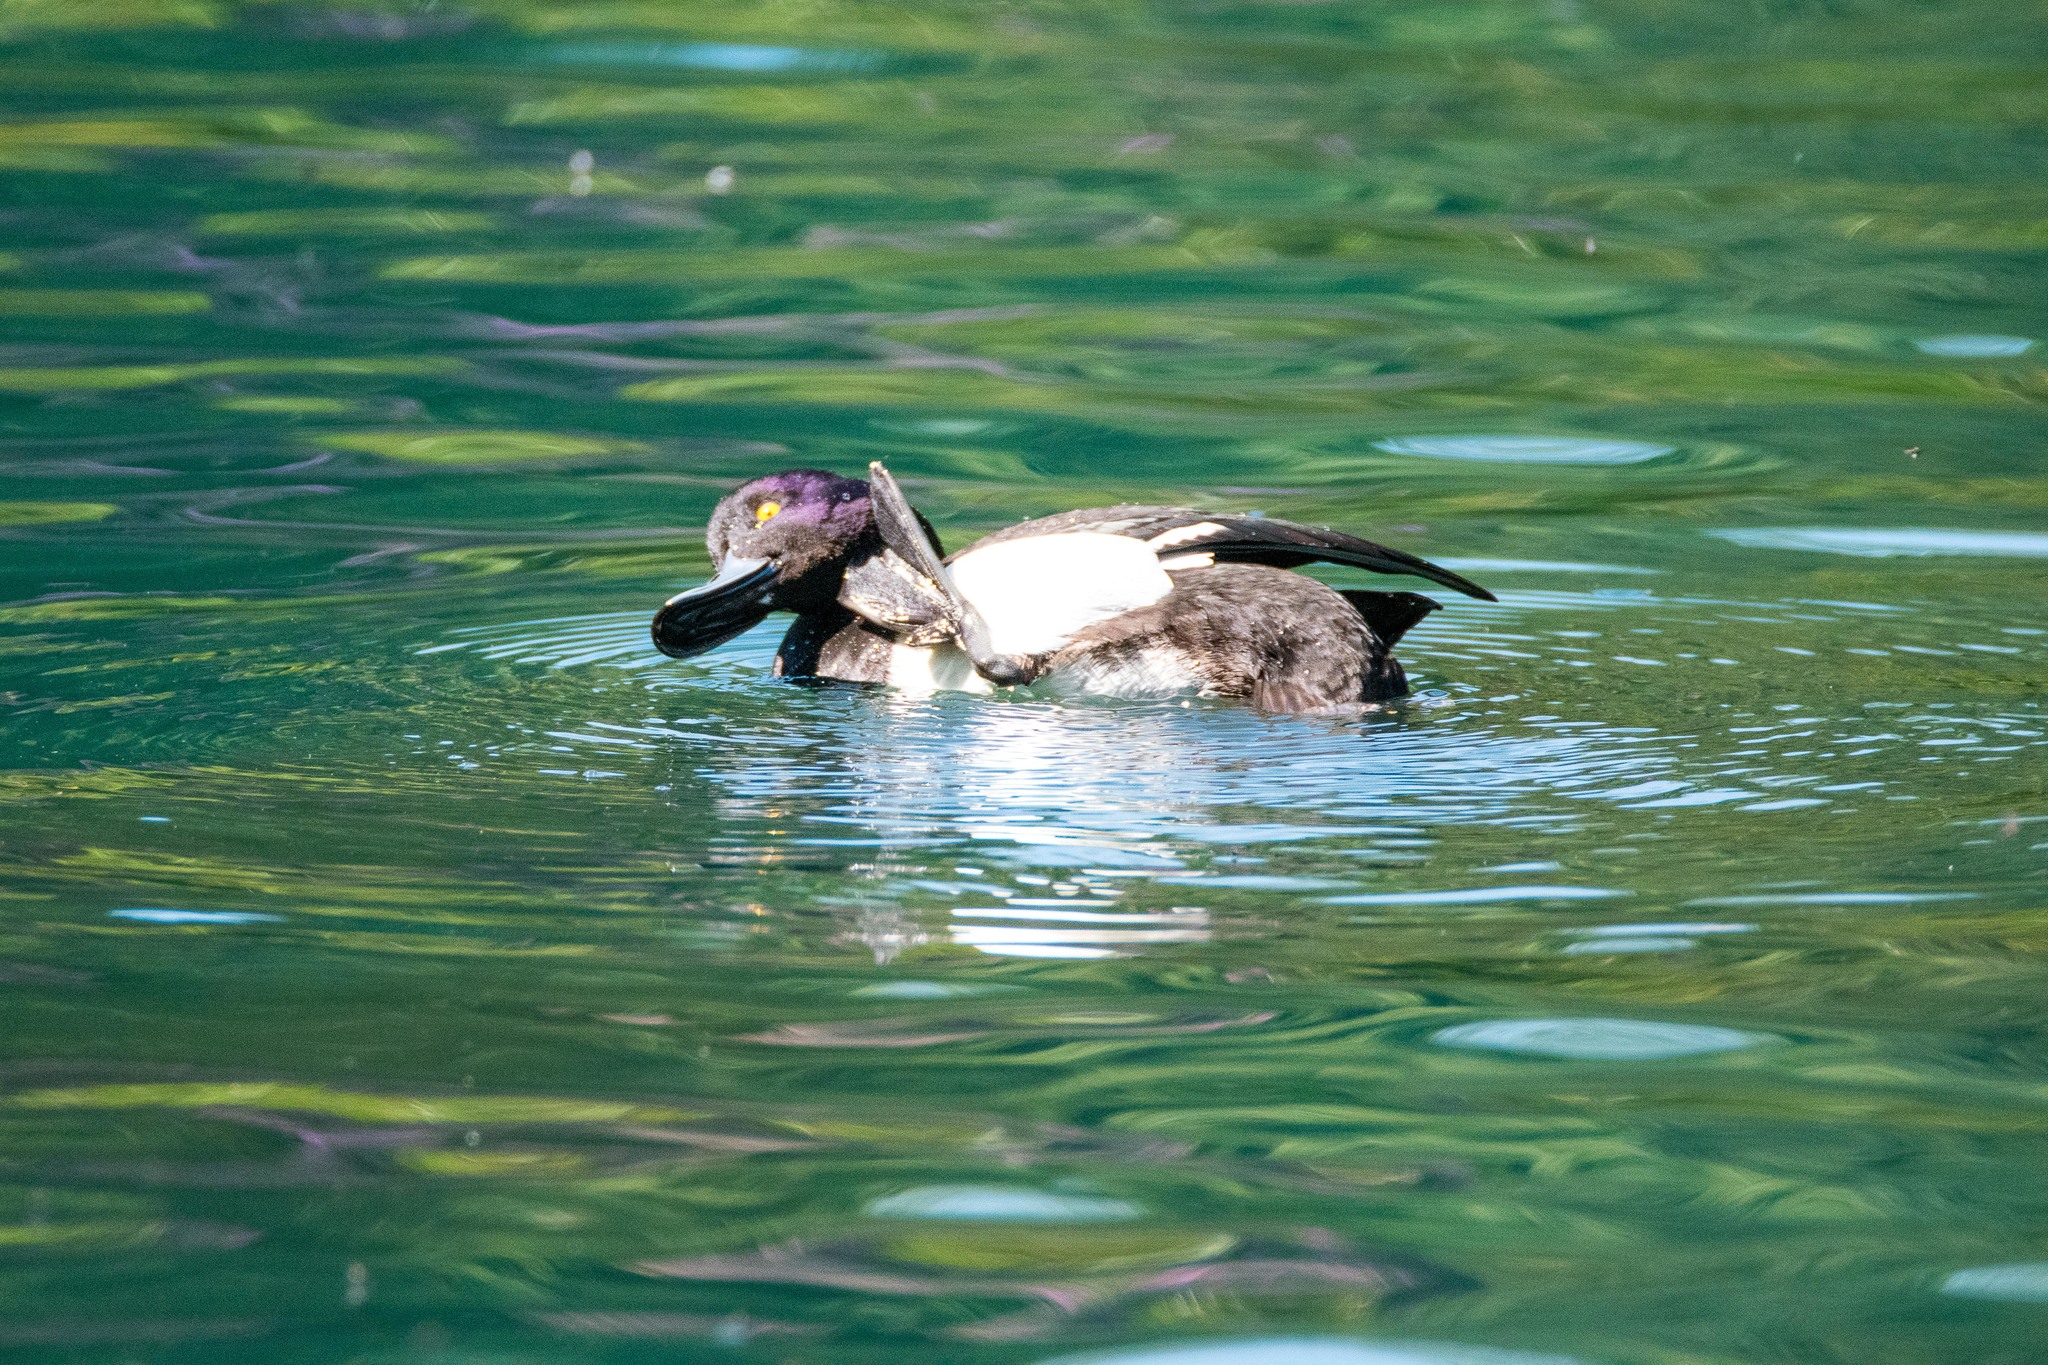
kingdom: Animalia
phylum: Chordata
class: Aves
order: Anseriformes
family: Anatidae
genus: Aythya
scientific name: Aythya fuligula
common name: Tufted duck
